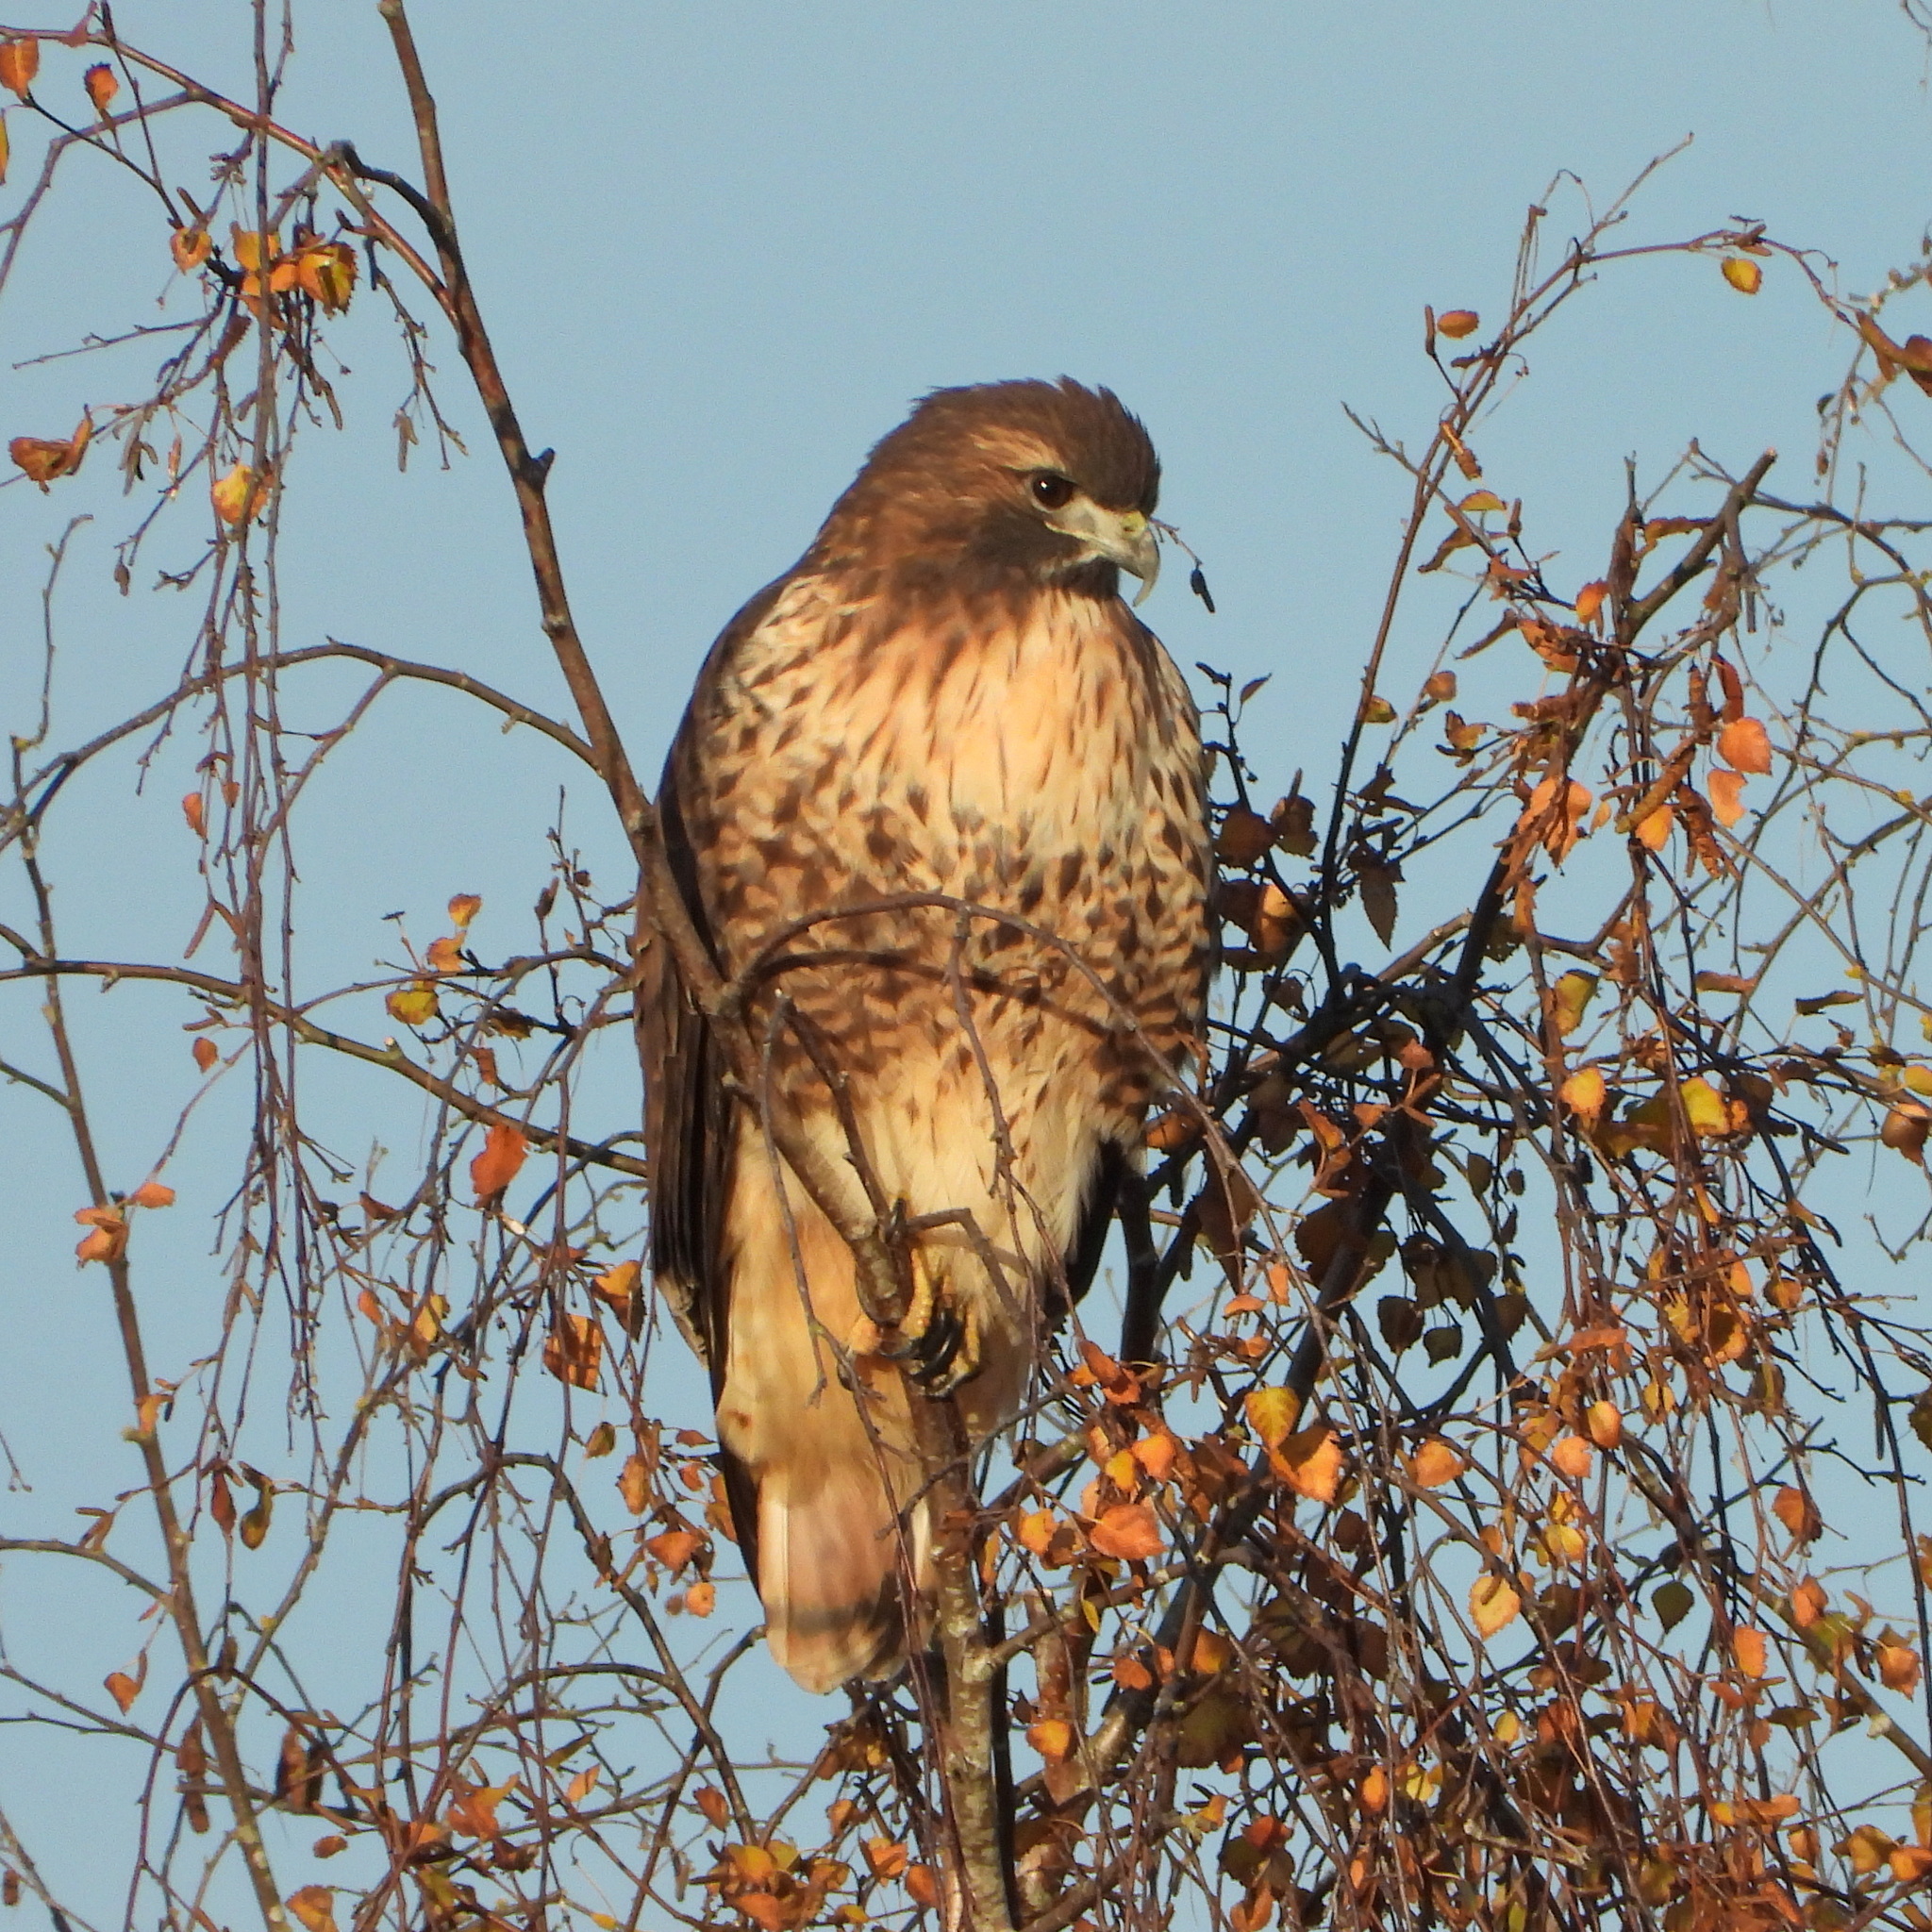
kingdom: Animalia
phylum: Chordata
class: Aves
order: Accipitriformes
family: Accipitridae
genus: Buteo
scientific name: Buteo jamaicensis
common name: Red-tailed hawk
